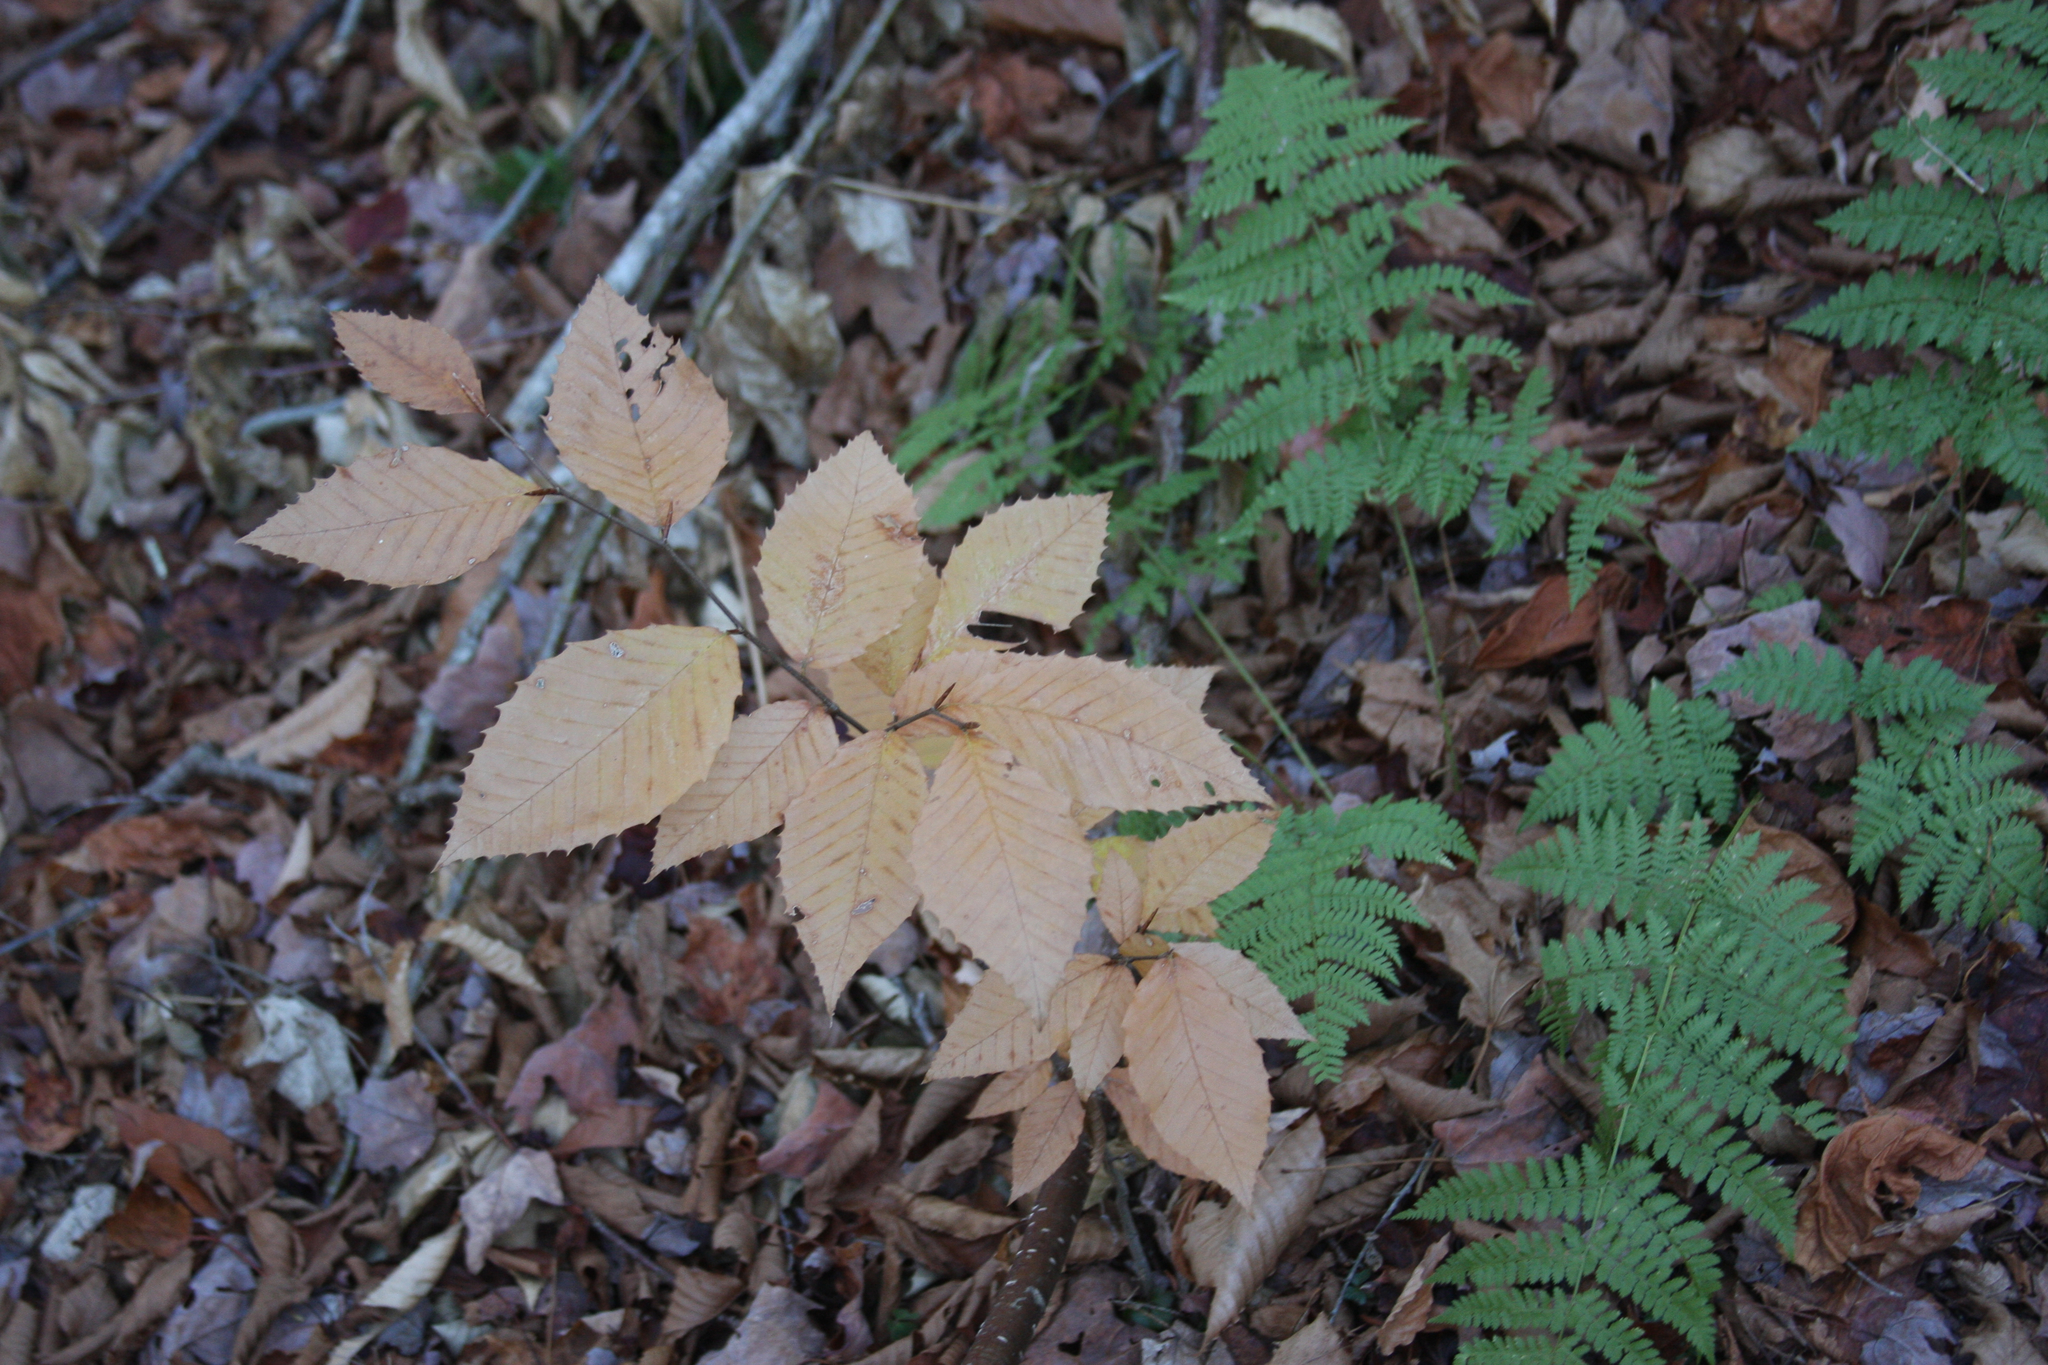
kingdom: Plantae
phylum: Tracheophyta
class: Magnoliopsida
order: Fagales
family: Fagaceae
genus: Fagus
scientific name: Fagus grandifolia
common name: American beech
